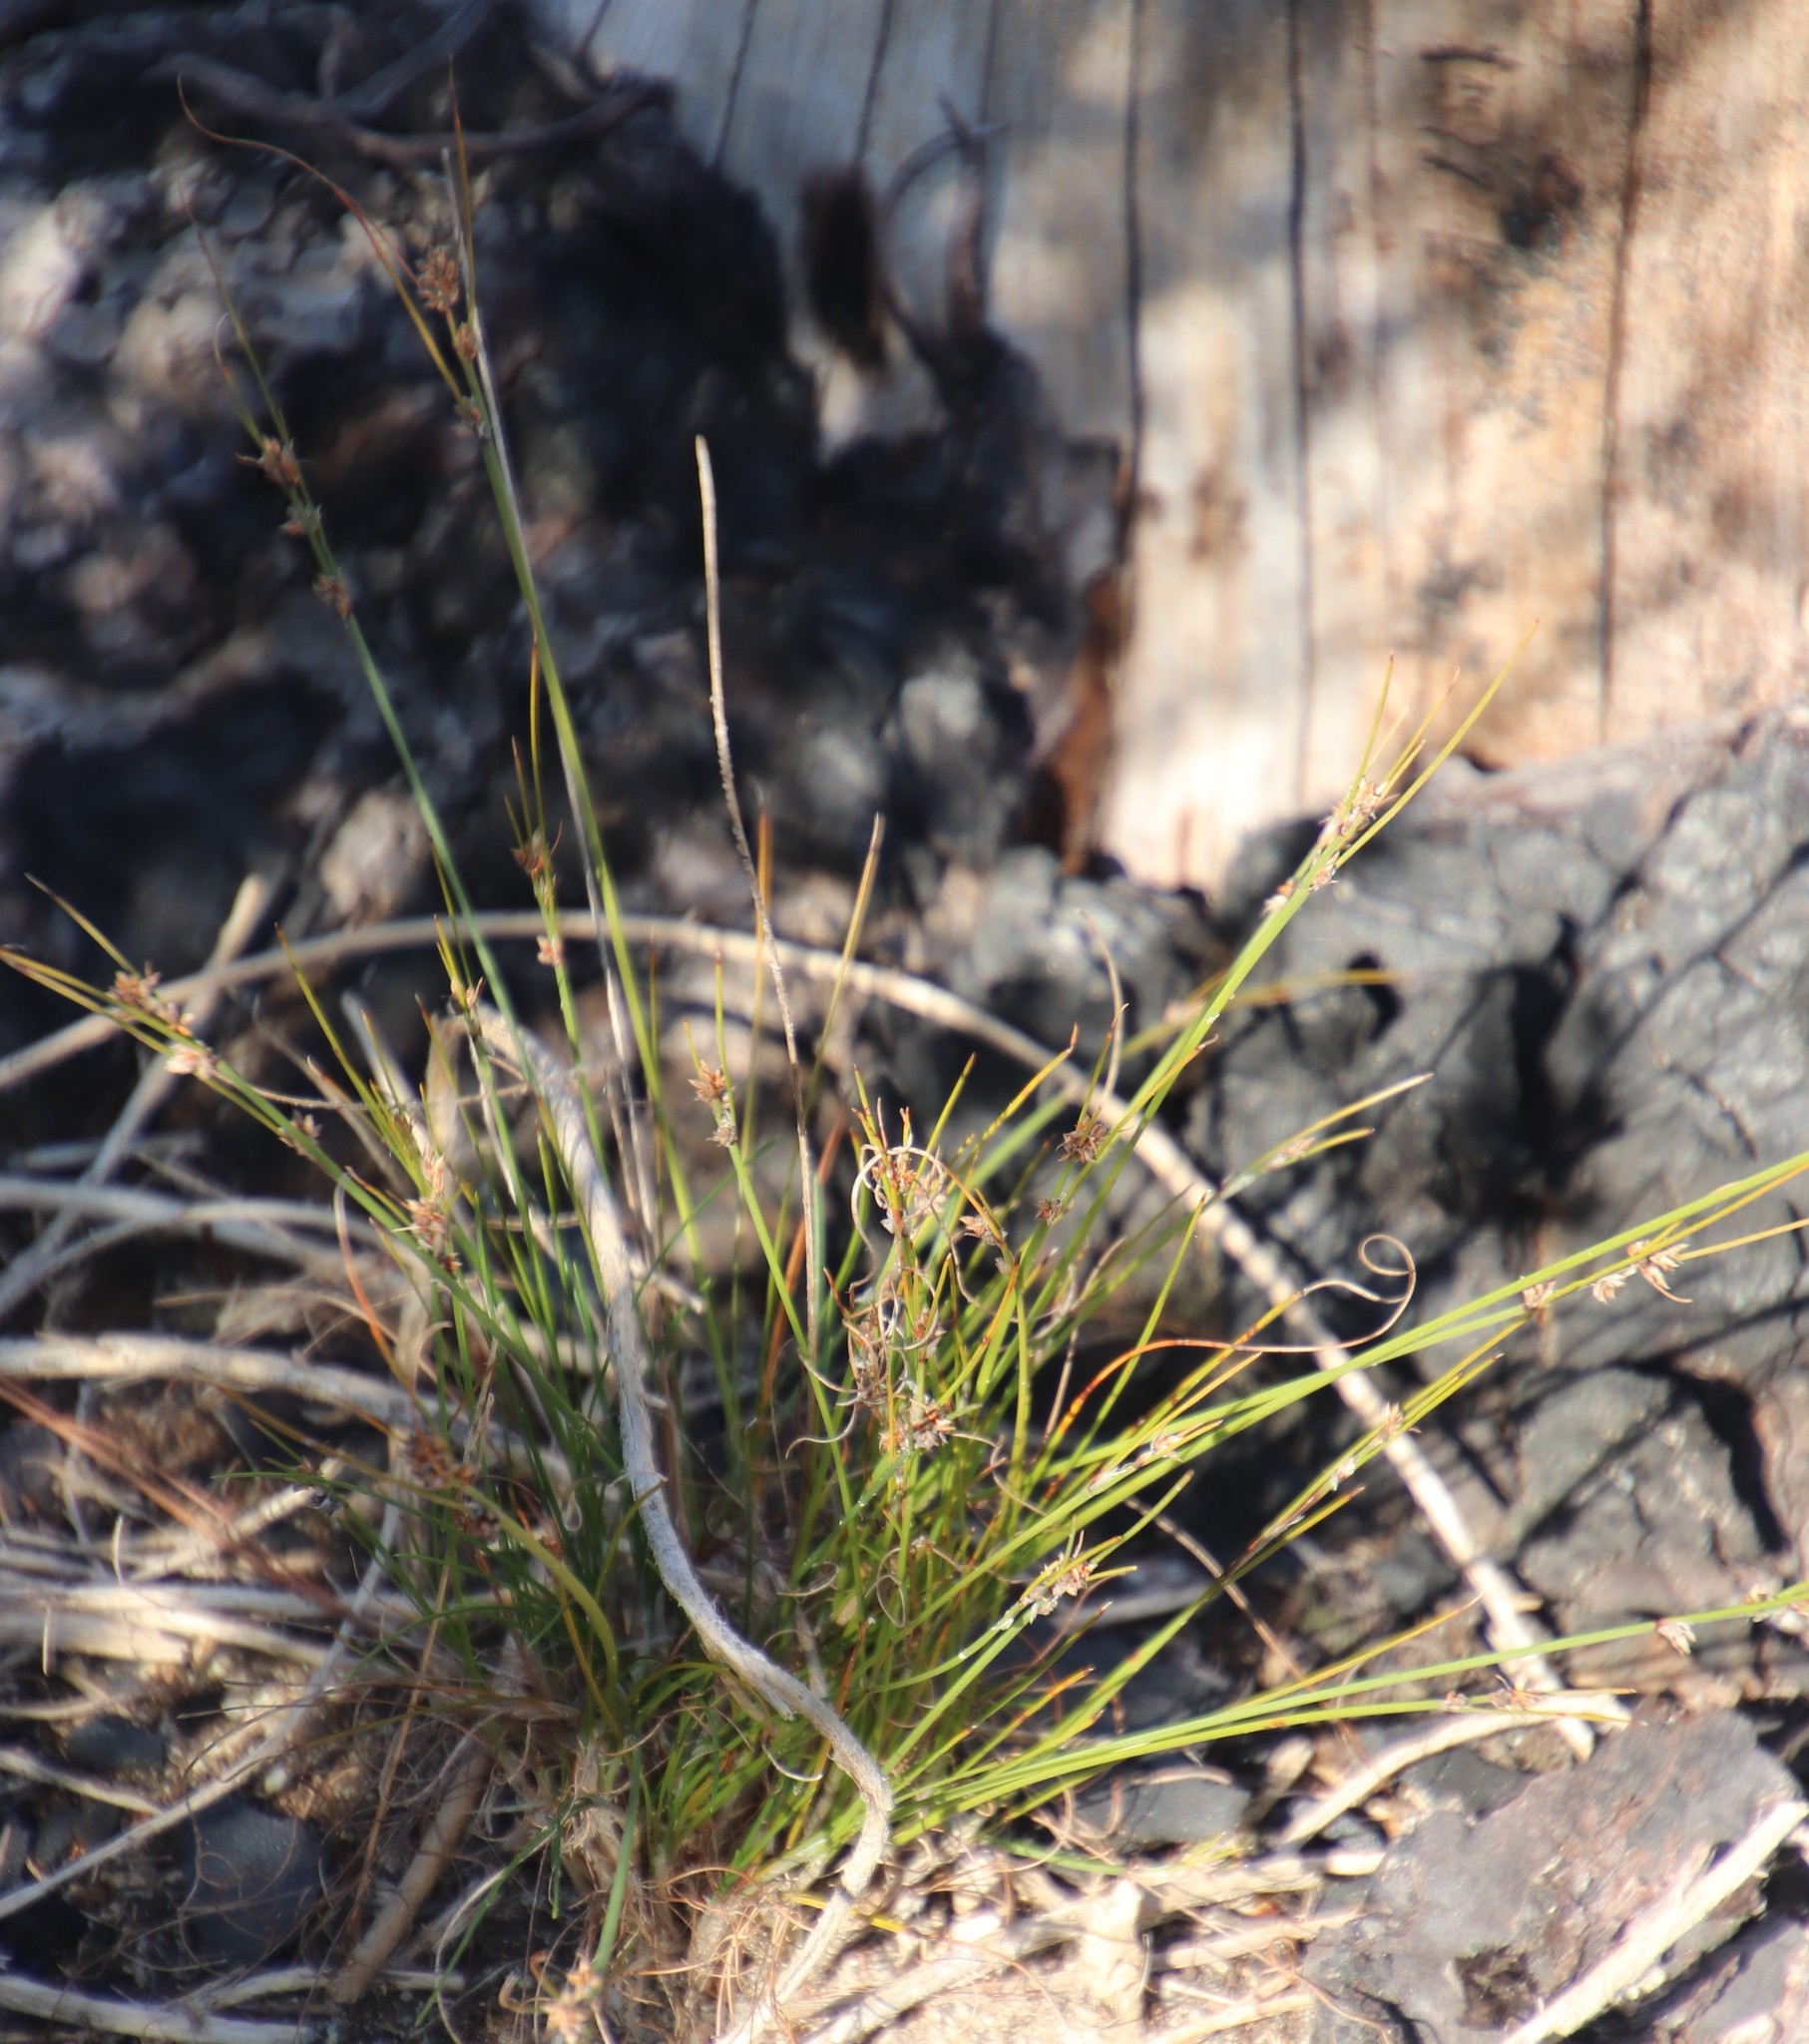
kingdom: Plantae
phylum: Tracheophyta
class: Liliopsida
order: Poales
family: Cyperaceae
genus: Ficinia
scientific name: Ficinia bulbosa
